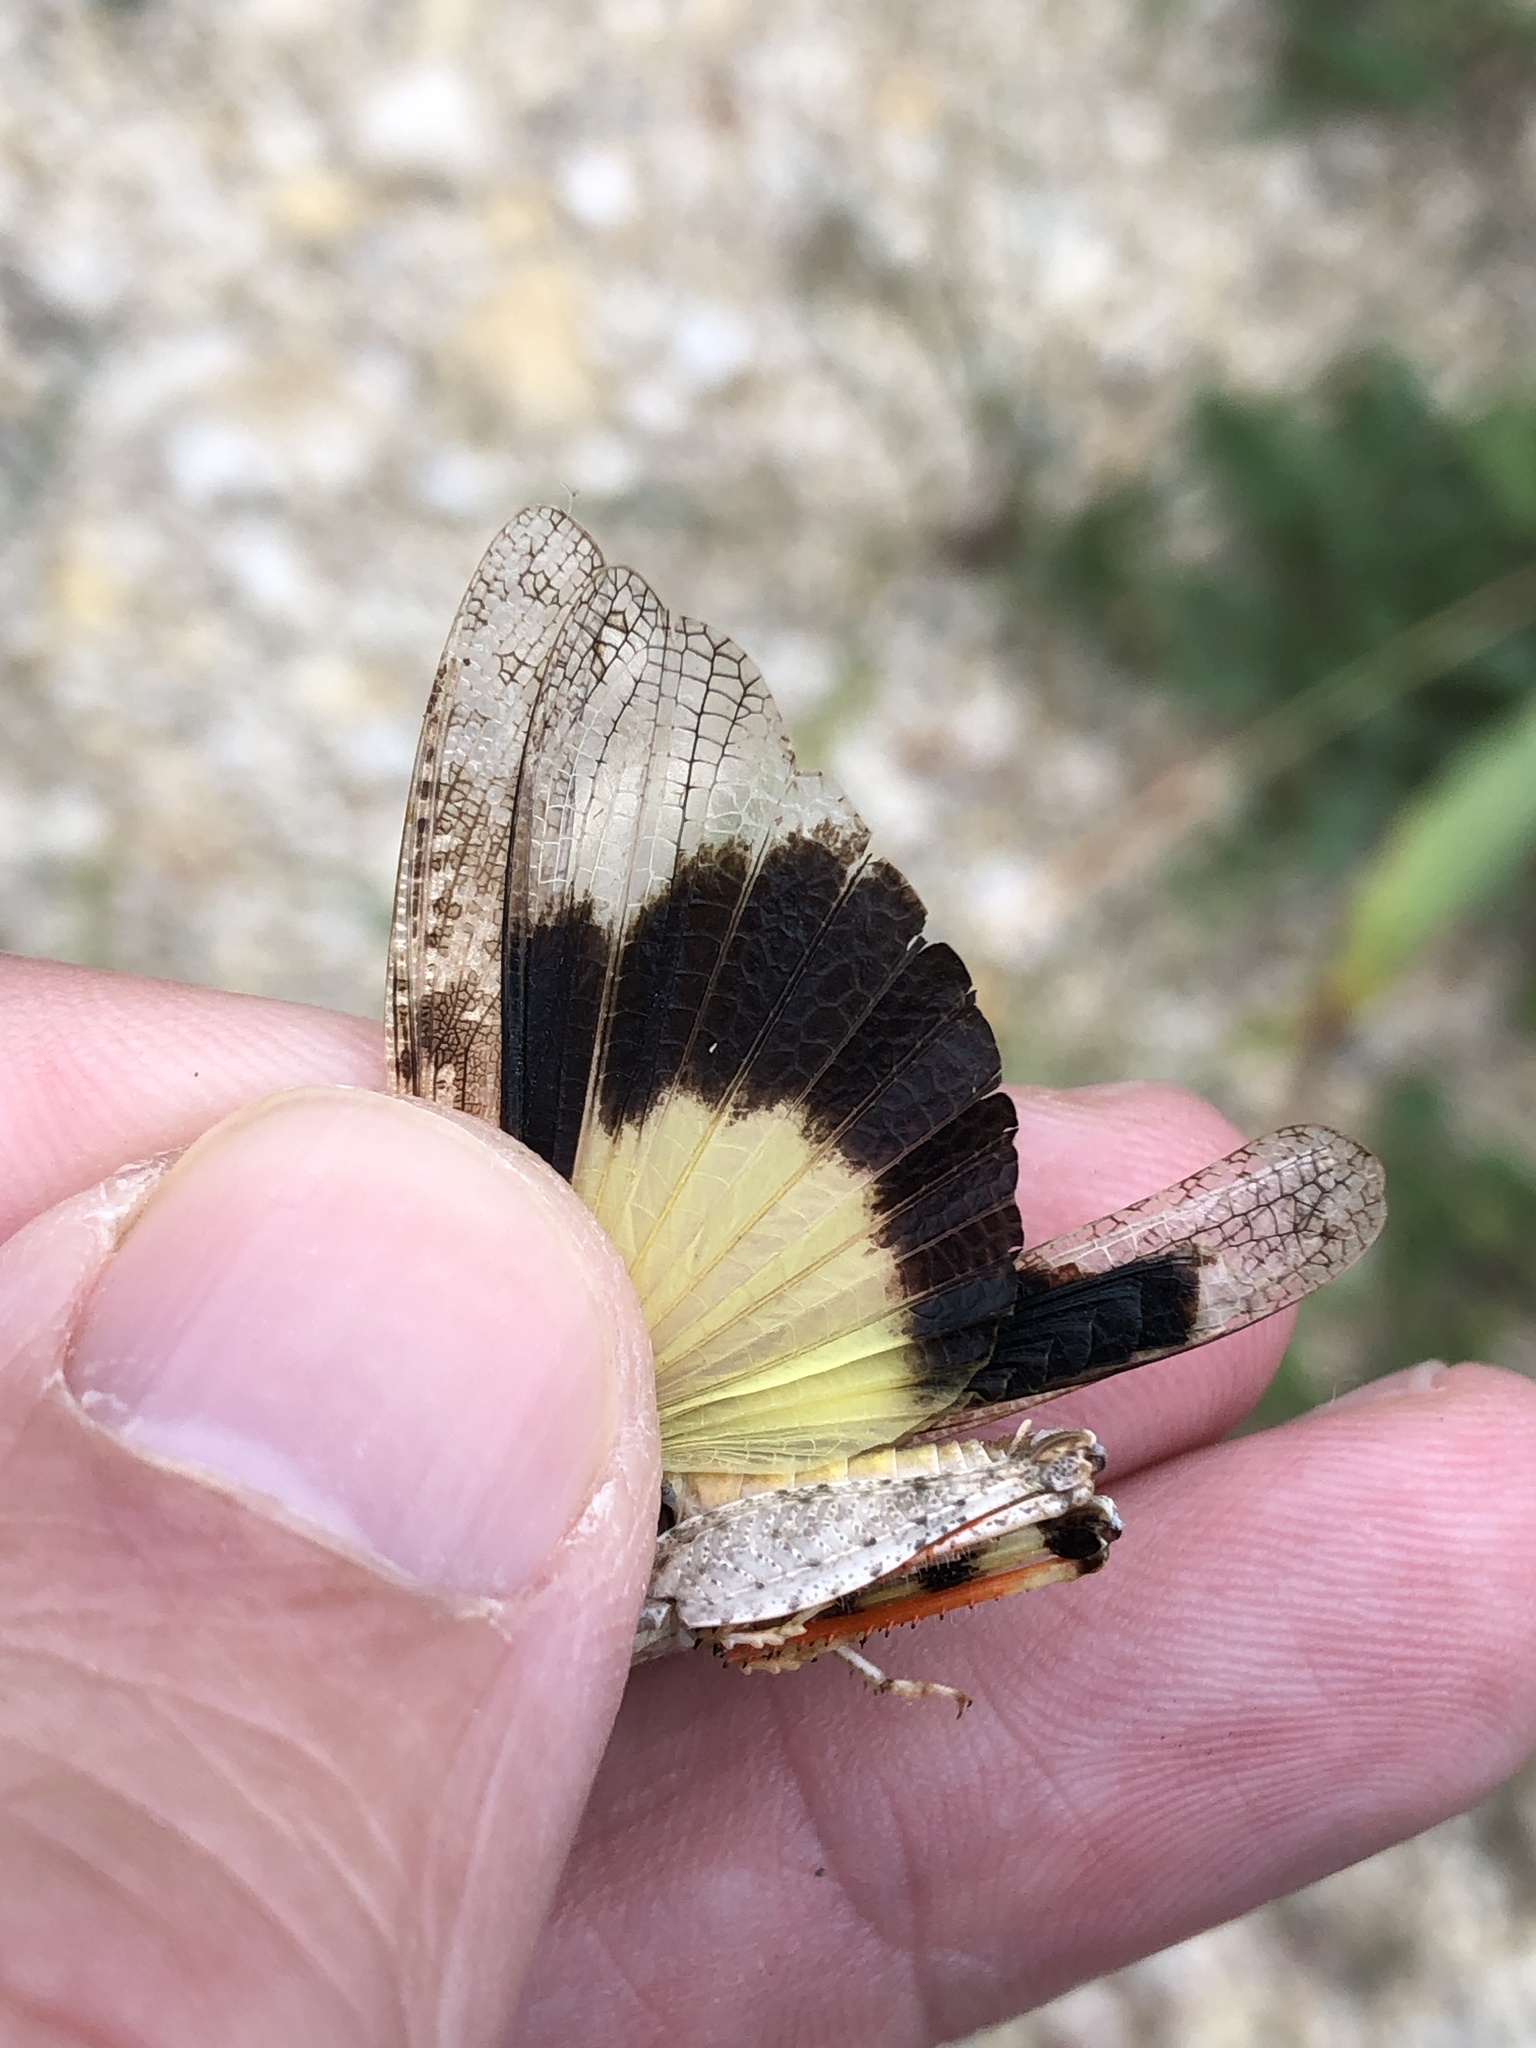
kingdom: Animalia
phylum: Arthropoda
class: Insecta
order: Orthoptera
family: Acrididae
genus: Trimerotropis
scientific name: Trimerotropis maritima
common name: Seaside locust
